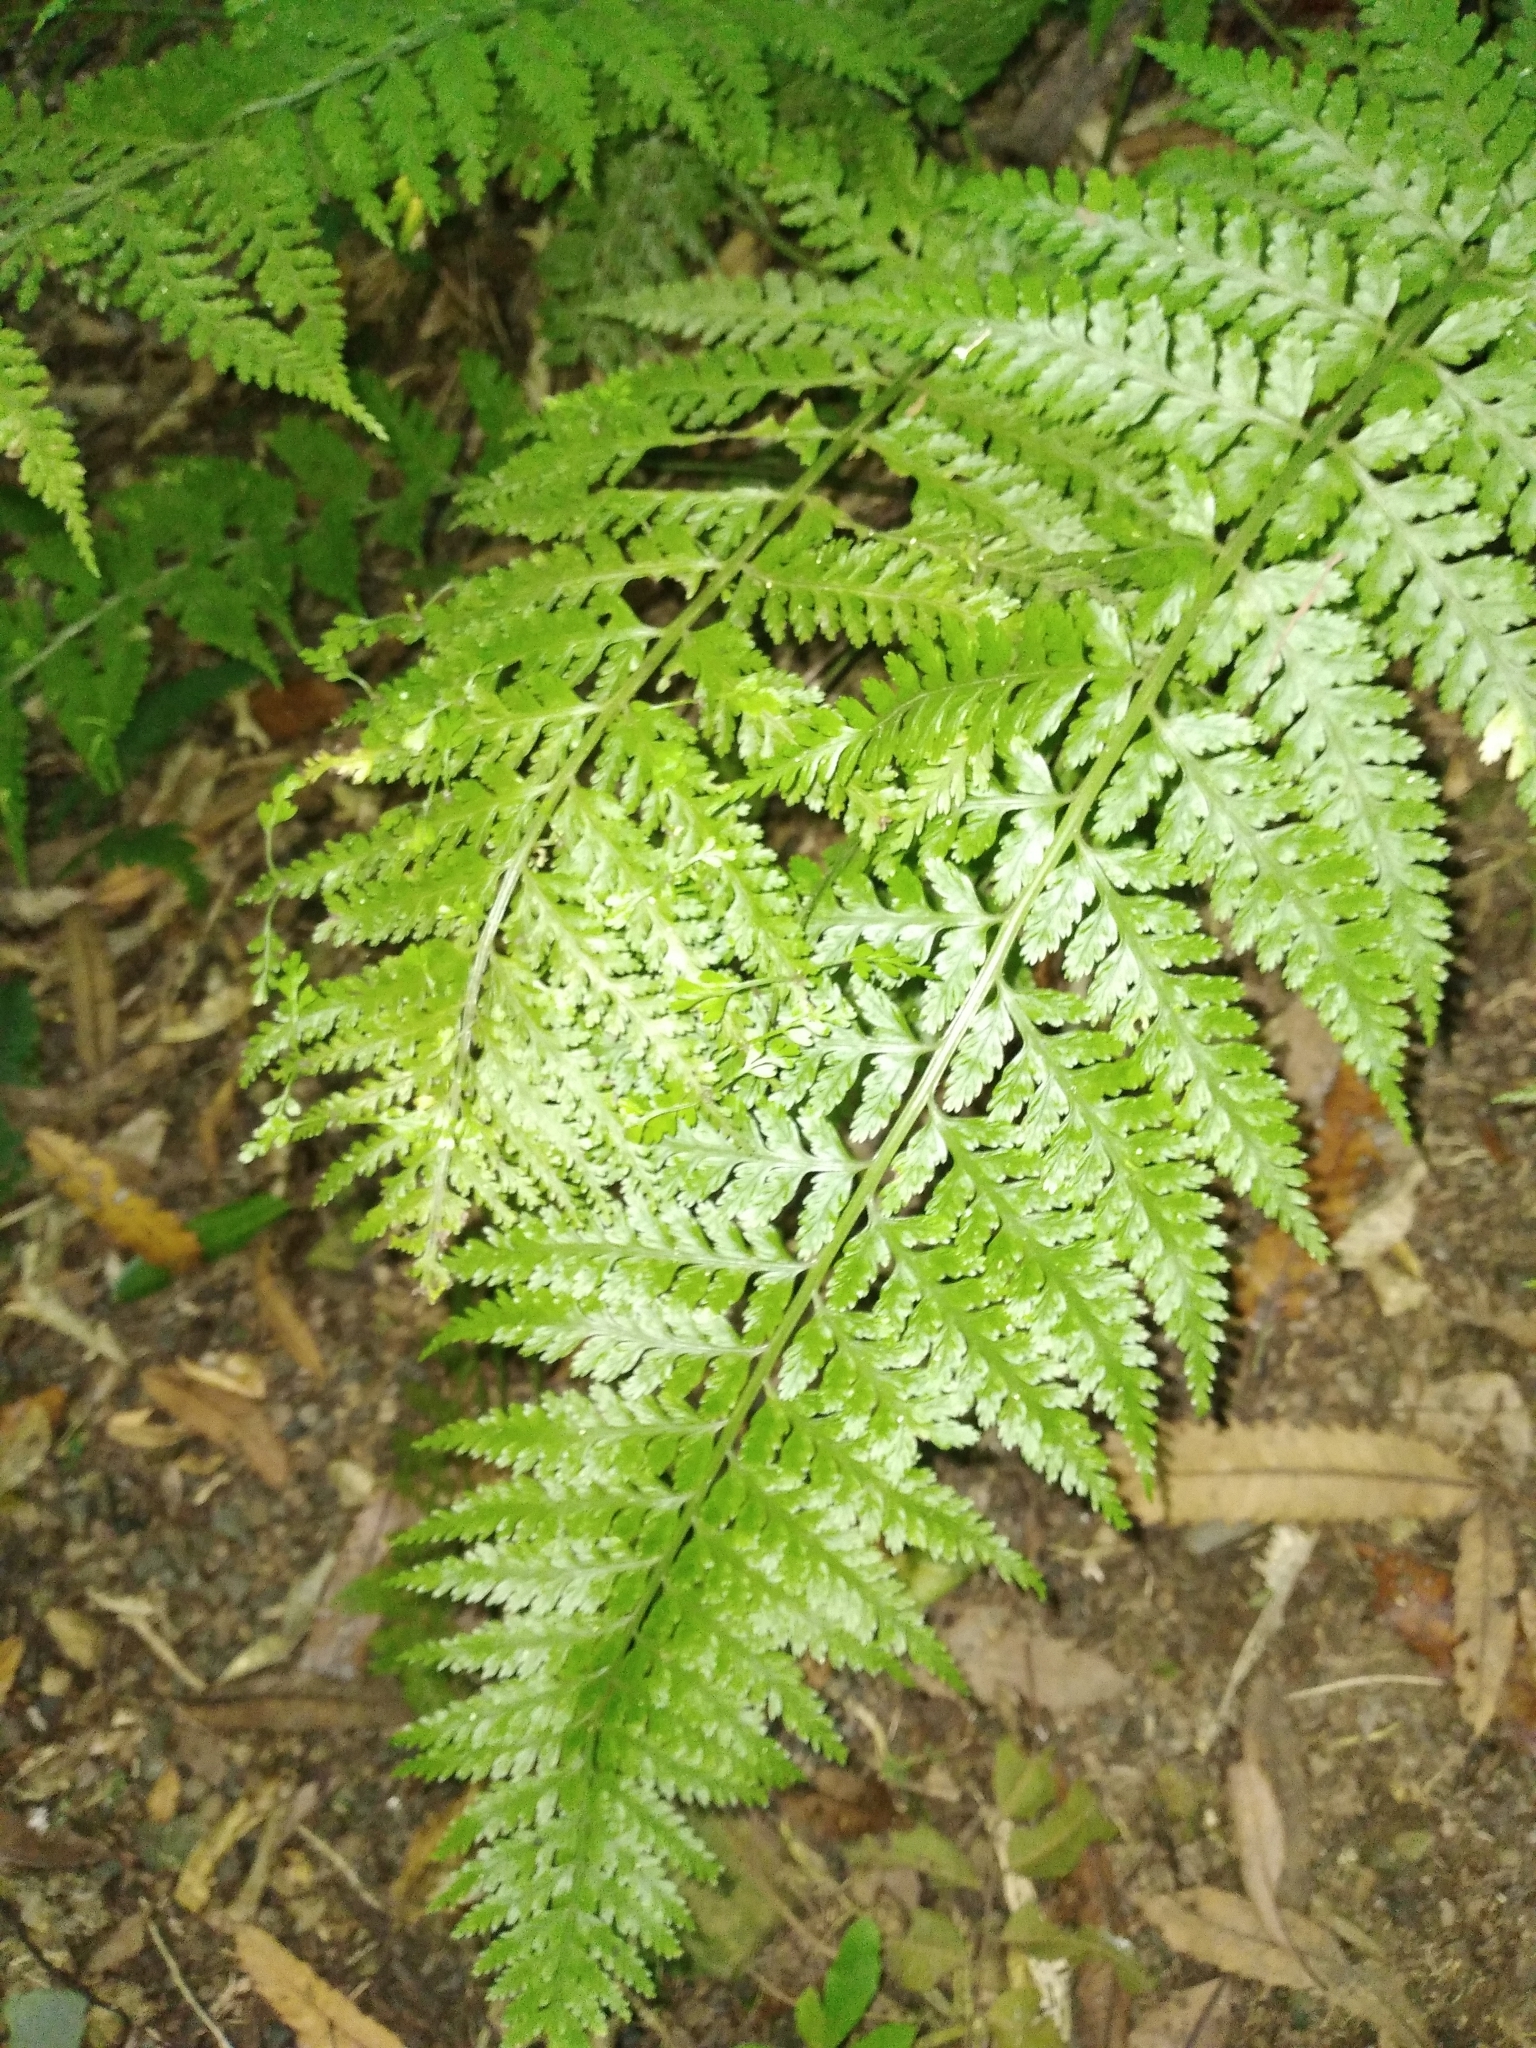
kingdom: Plantae
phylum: Tracheophyta
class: Polypodiopsida
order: Polypodiales
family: Aspleniaceae
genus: Asplenium
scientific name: Asplenium bulbiferum
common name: Mother fern
